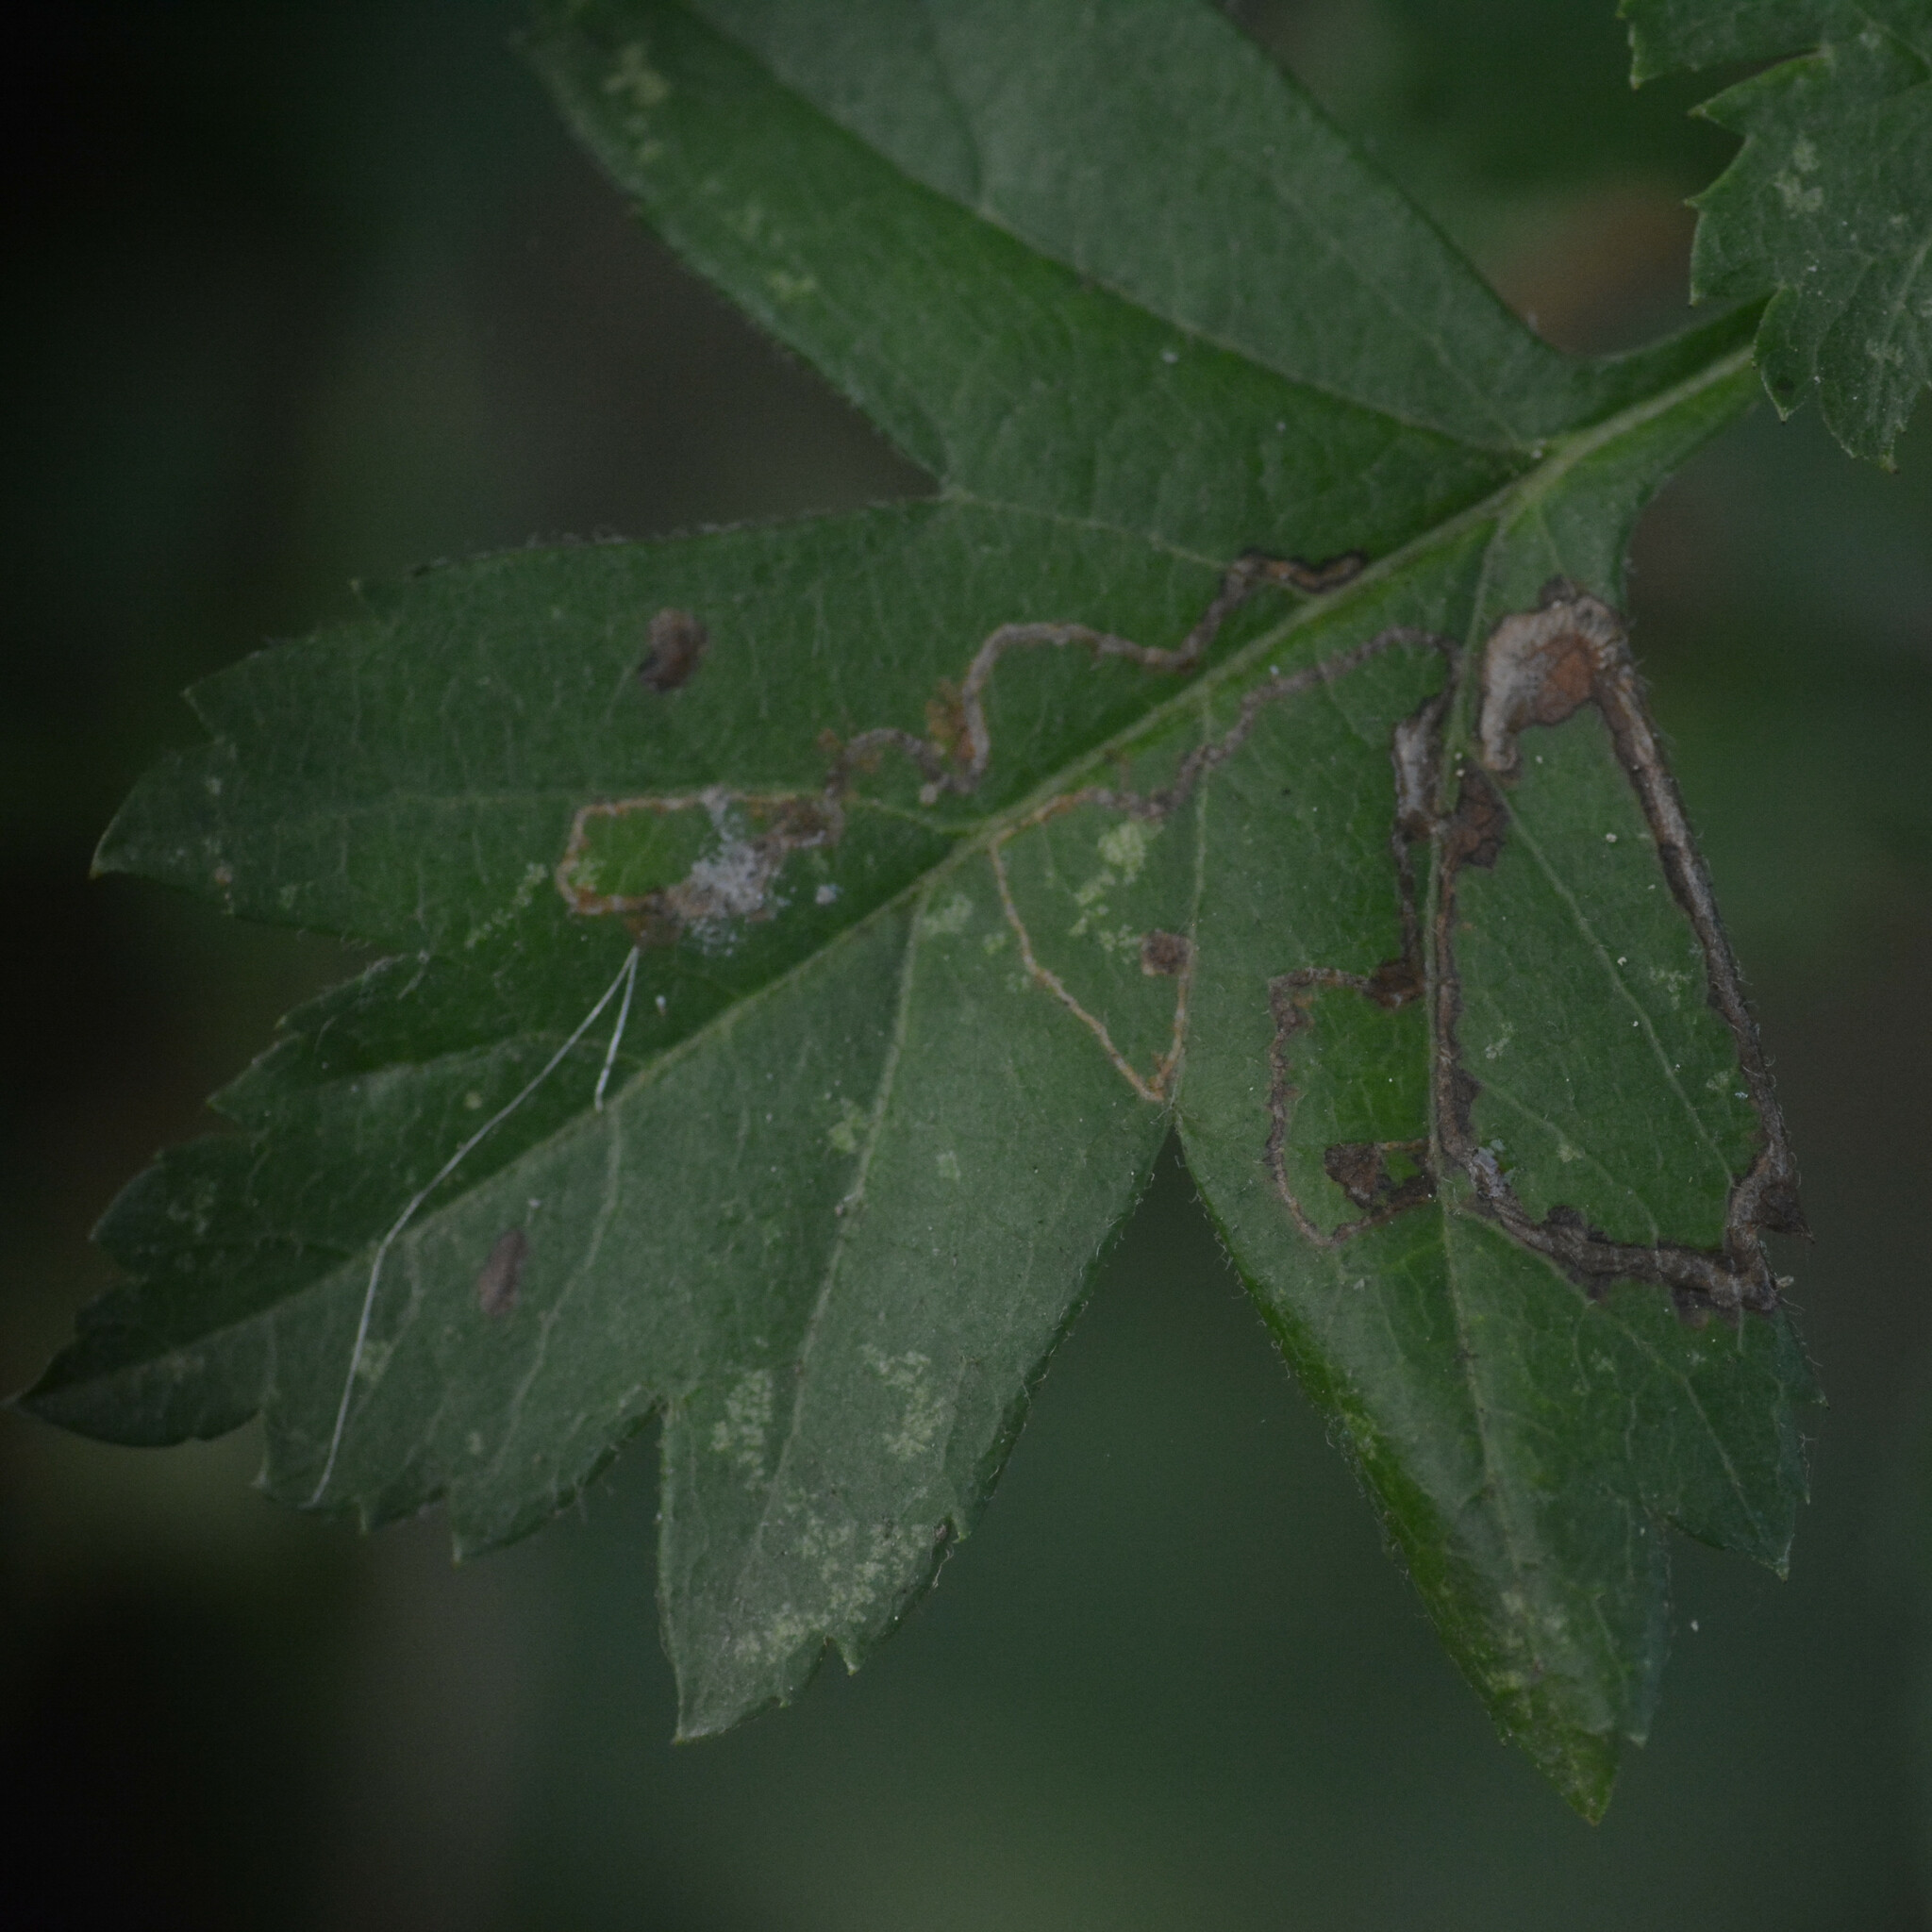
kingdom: Animalia
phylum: Arthropoda
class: Insecta
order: Lepidoptera
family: Lyonetiidae
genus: Lyonetia
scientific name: Lyonetia clerkella
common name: Apple leaf miner
